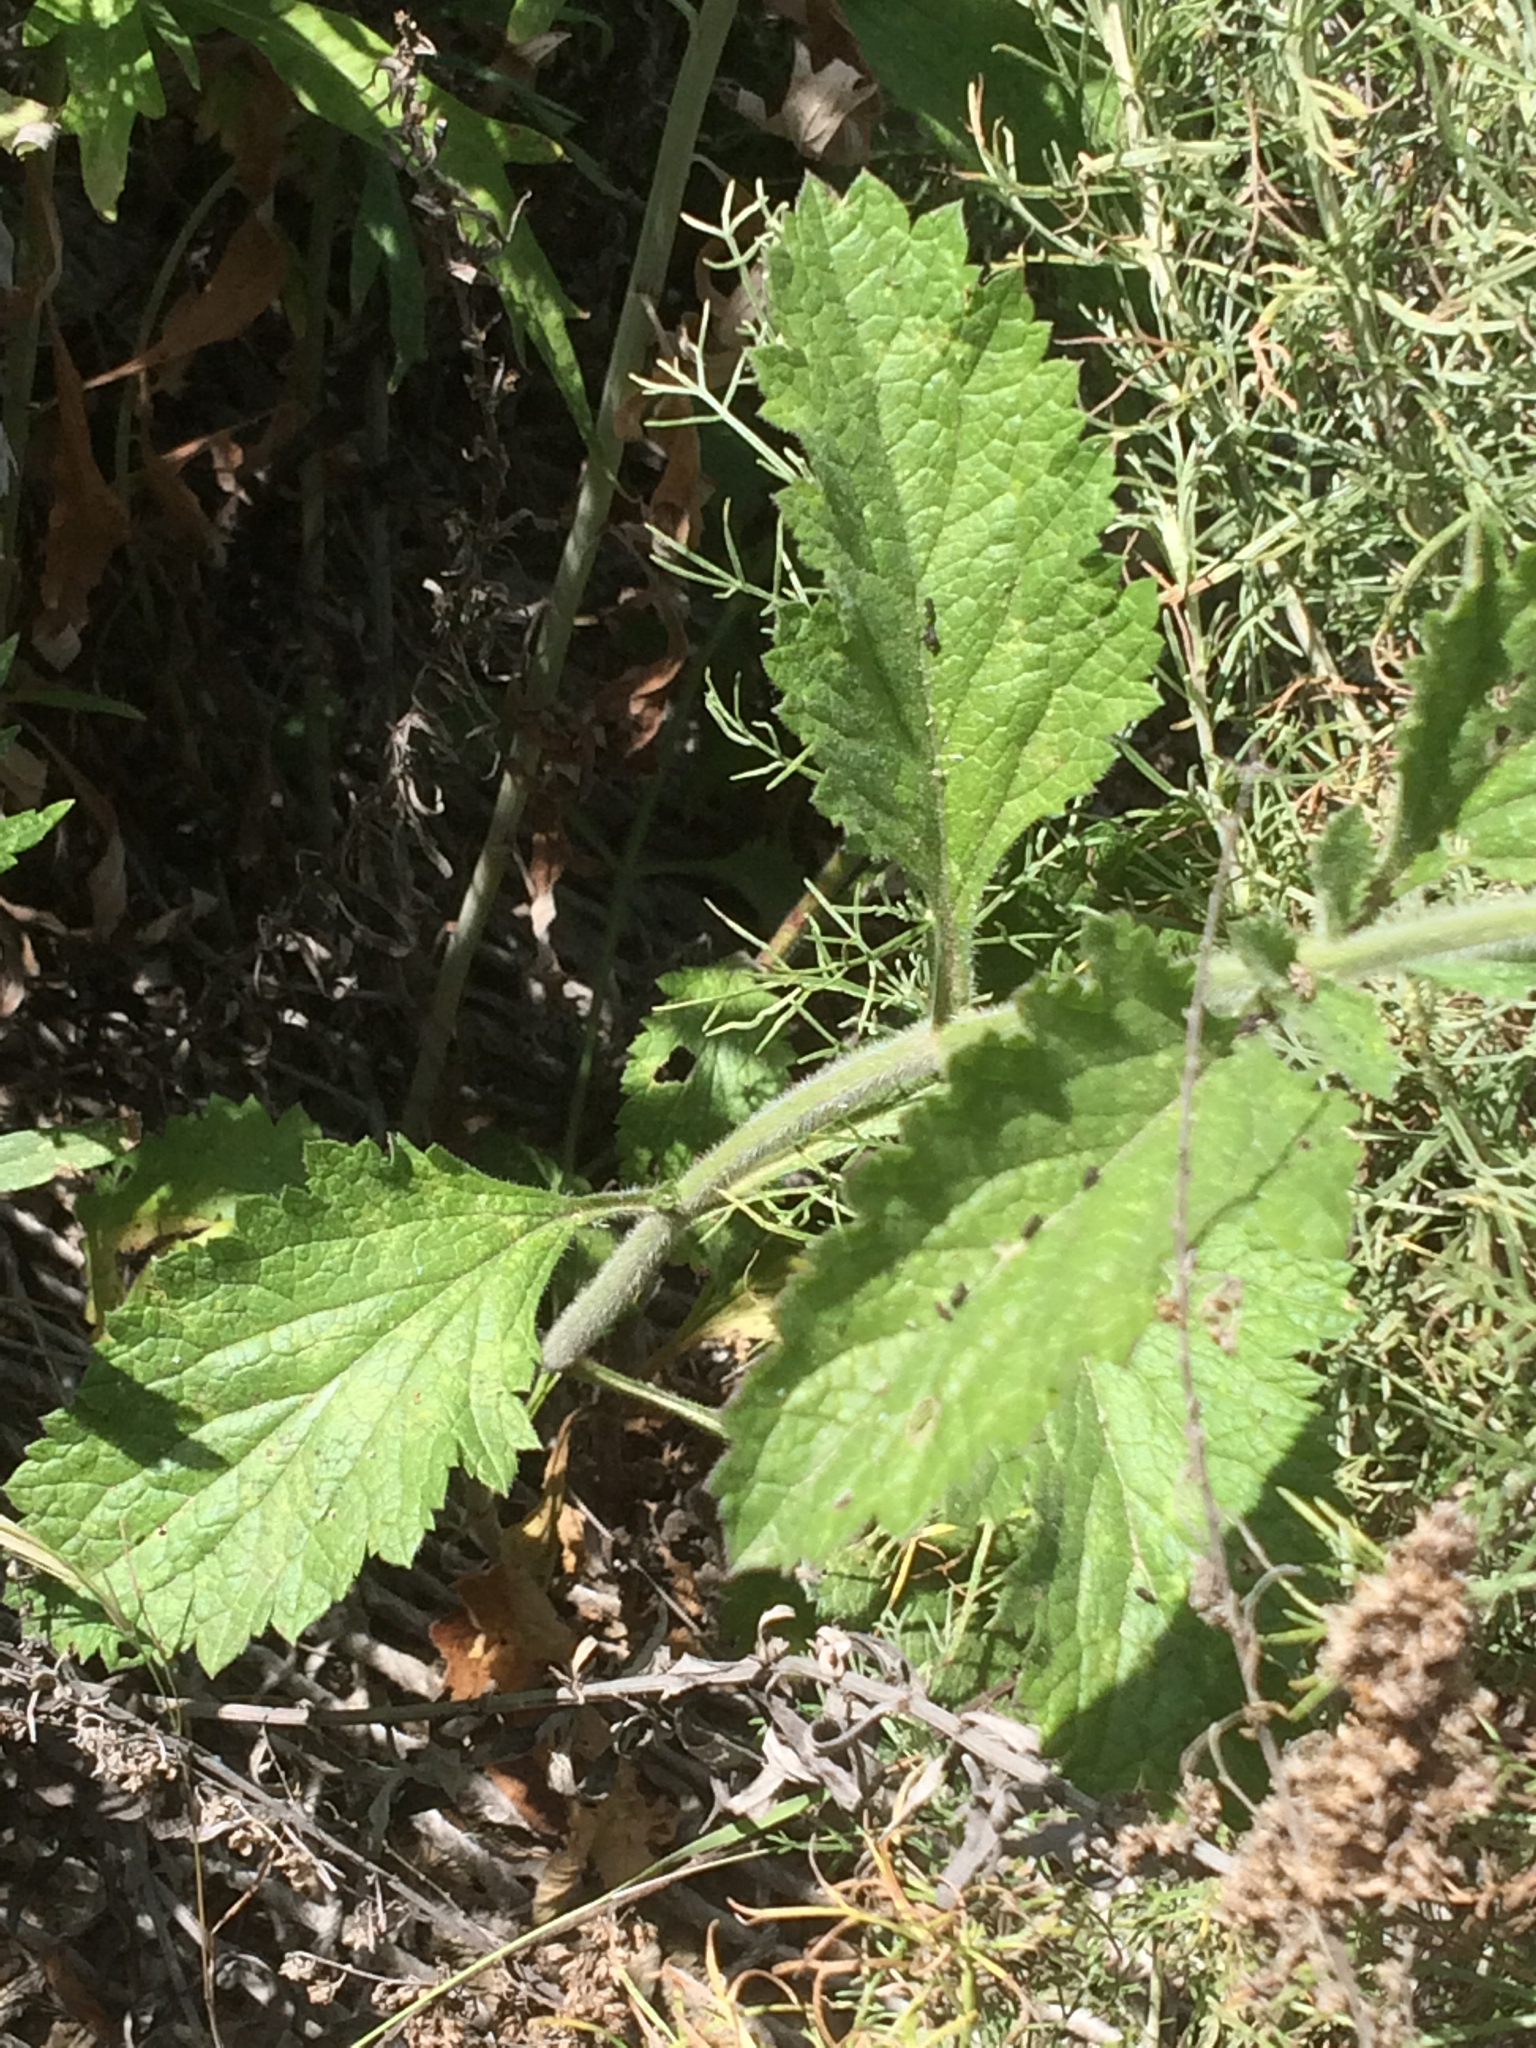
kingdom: Plantae
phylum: Tracheophyta
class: Magnoliopsida
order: Lamiales
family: Verbenaceae
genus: Verbena
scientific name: Verbena lasiostachys
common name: Vervain
